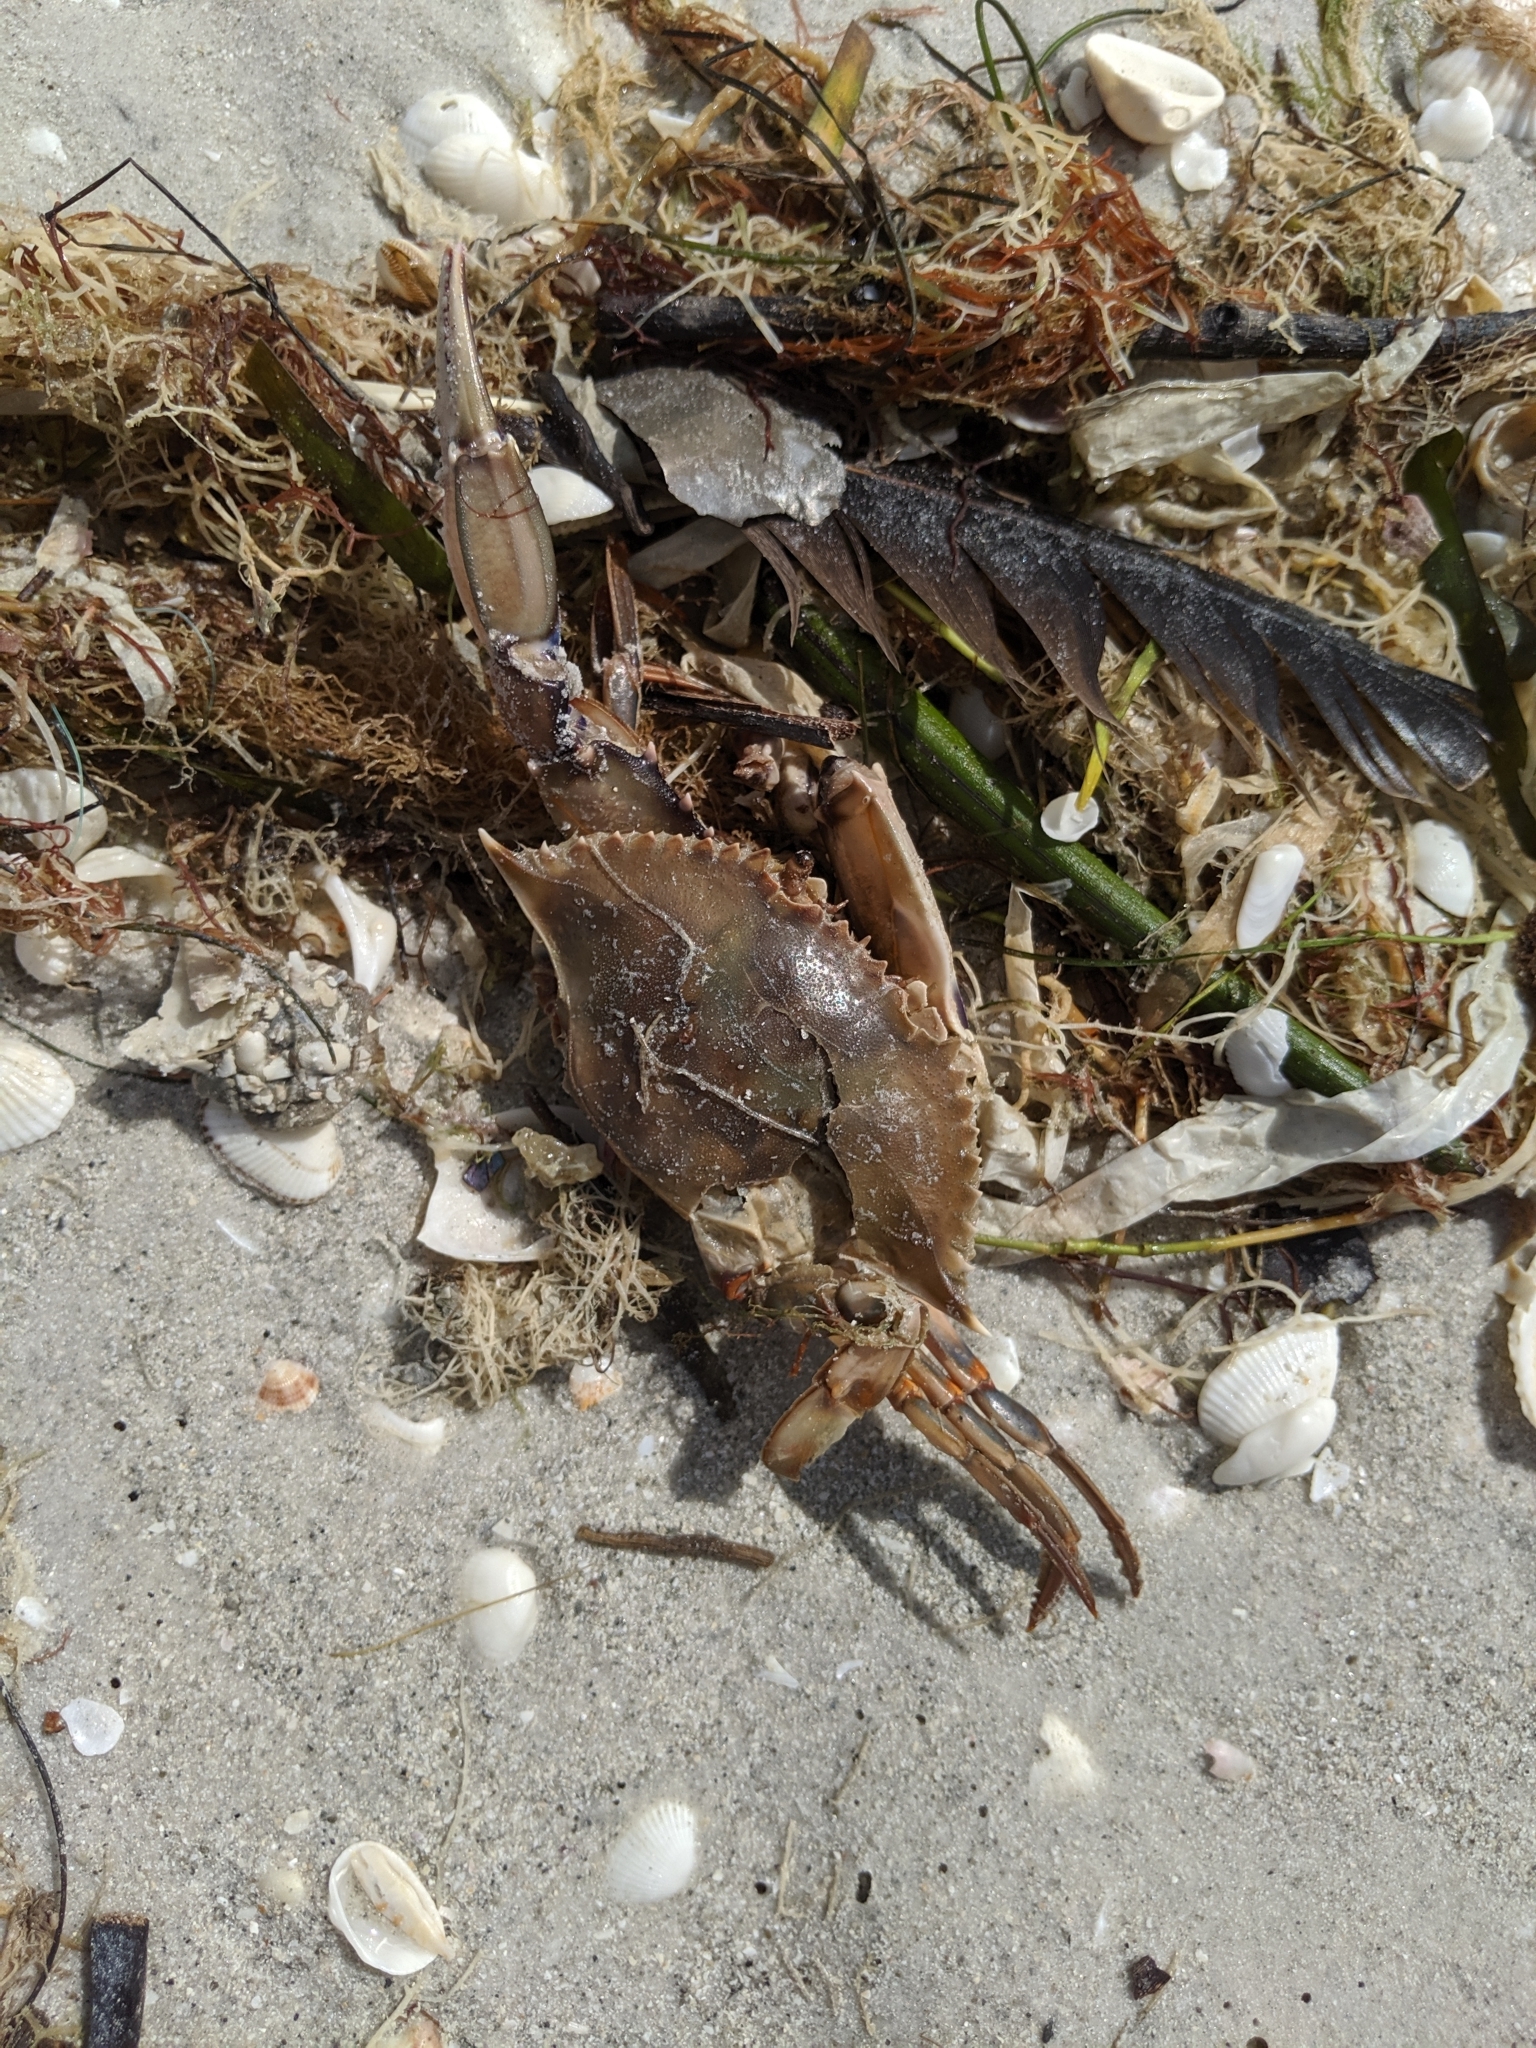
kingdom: Animalia
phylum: Arthropoda
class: Malacostraca
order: Decapoda
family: Portunidae
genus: Callinectes
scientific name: Callinectes ornatus
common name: Ornate crab
